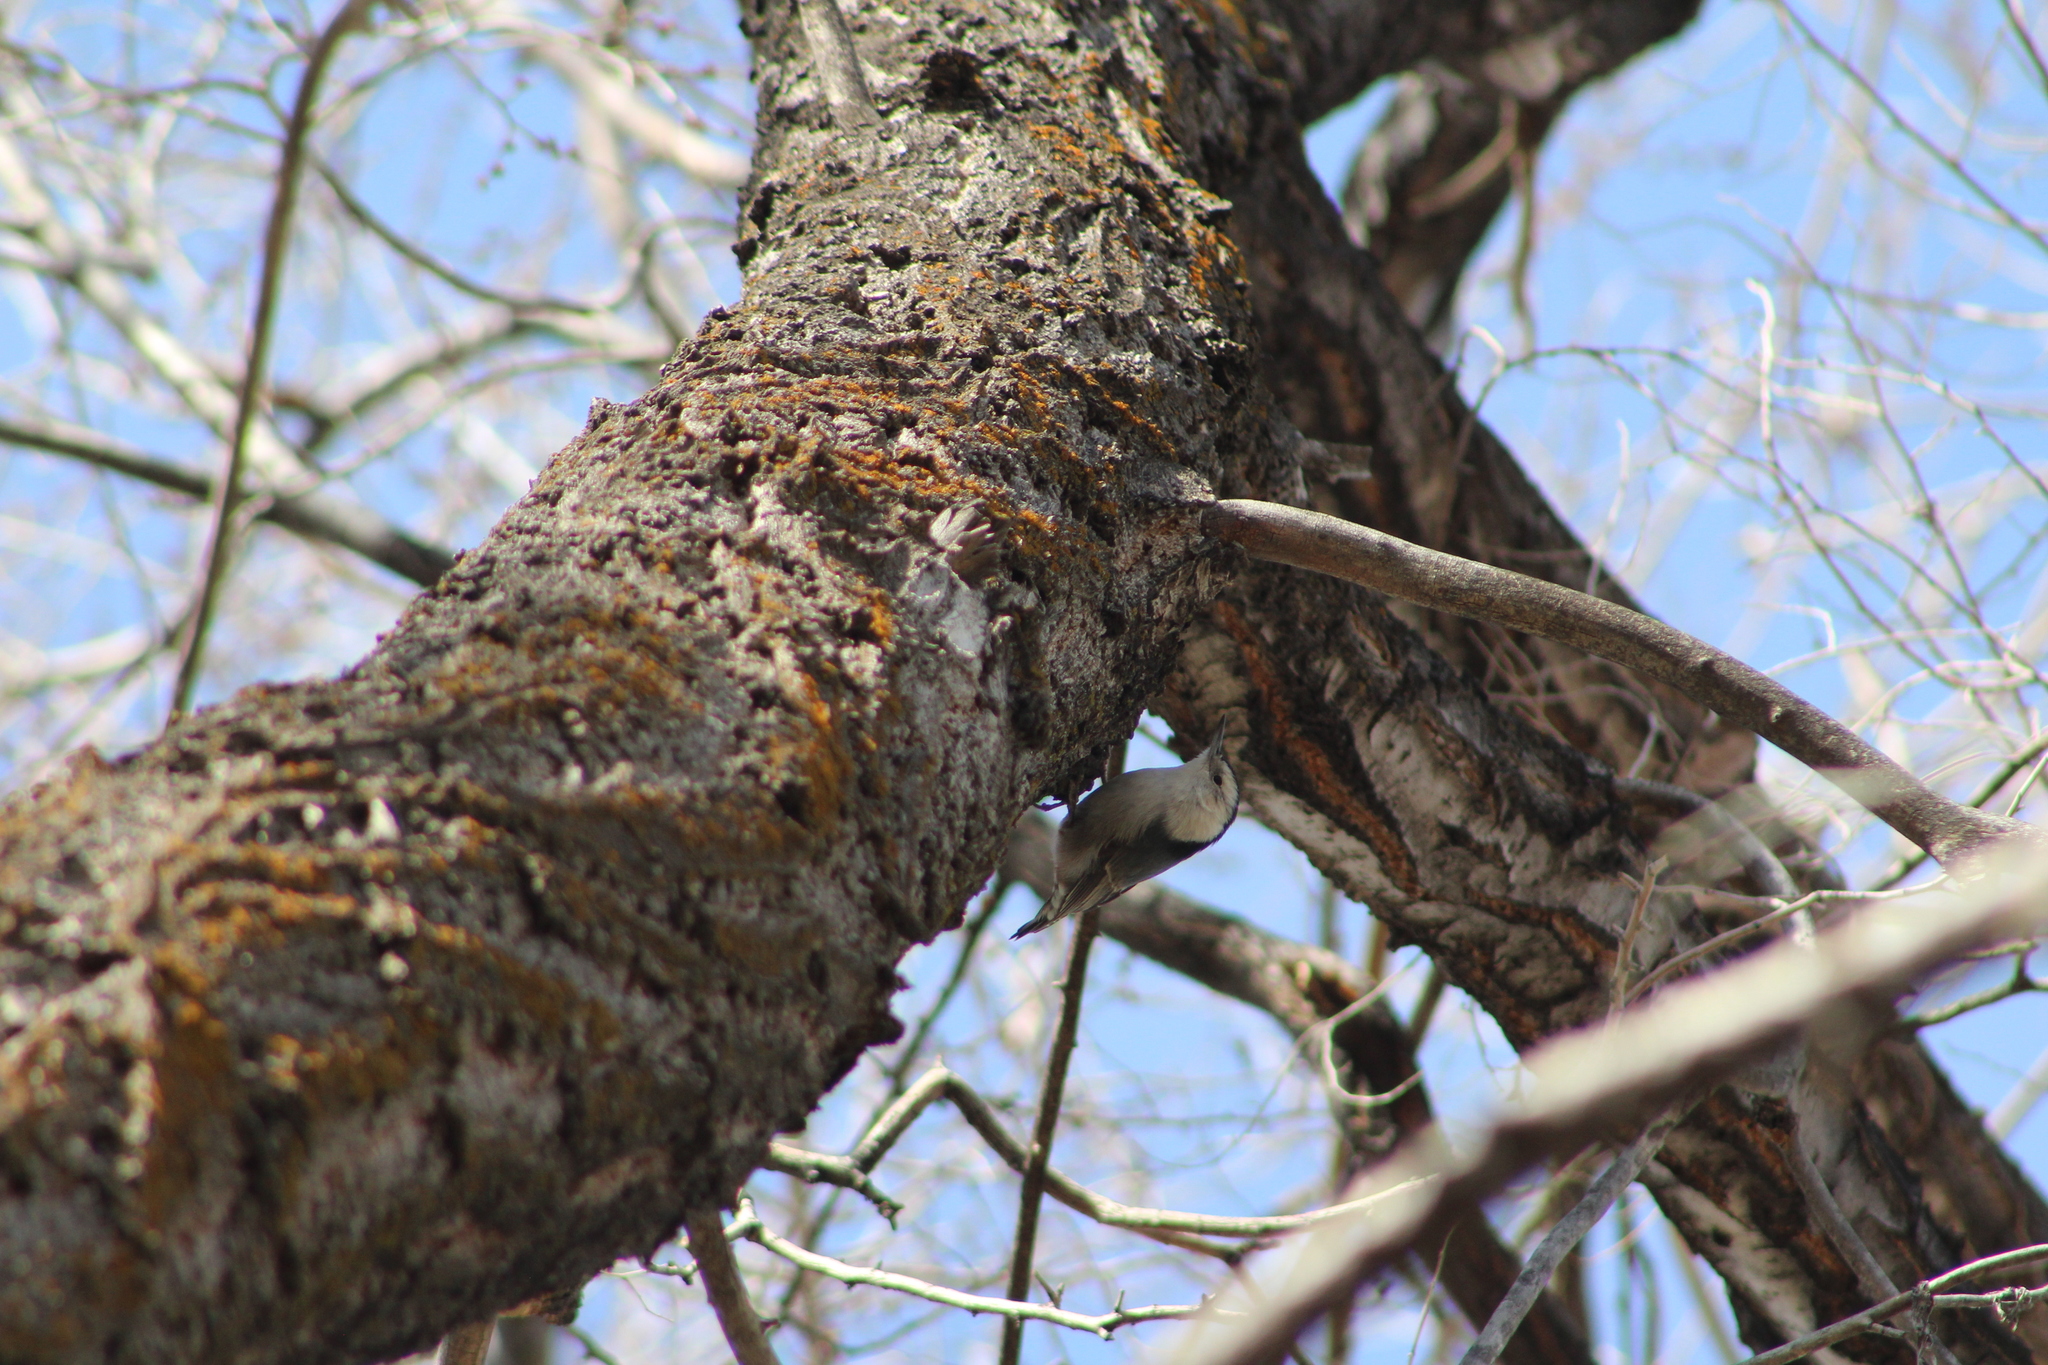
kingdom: Animalia
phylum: Chordata
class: Aves
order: Passeriformes
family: Sittidae
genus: Sitta
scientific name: Sitta carolinensis
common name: White-breasted nuthatch
